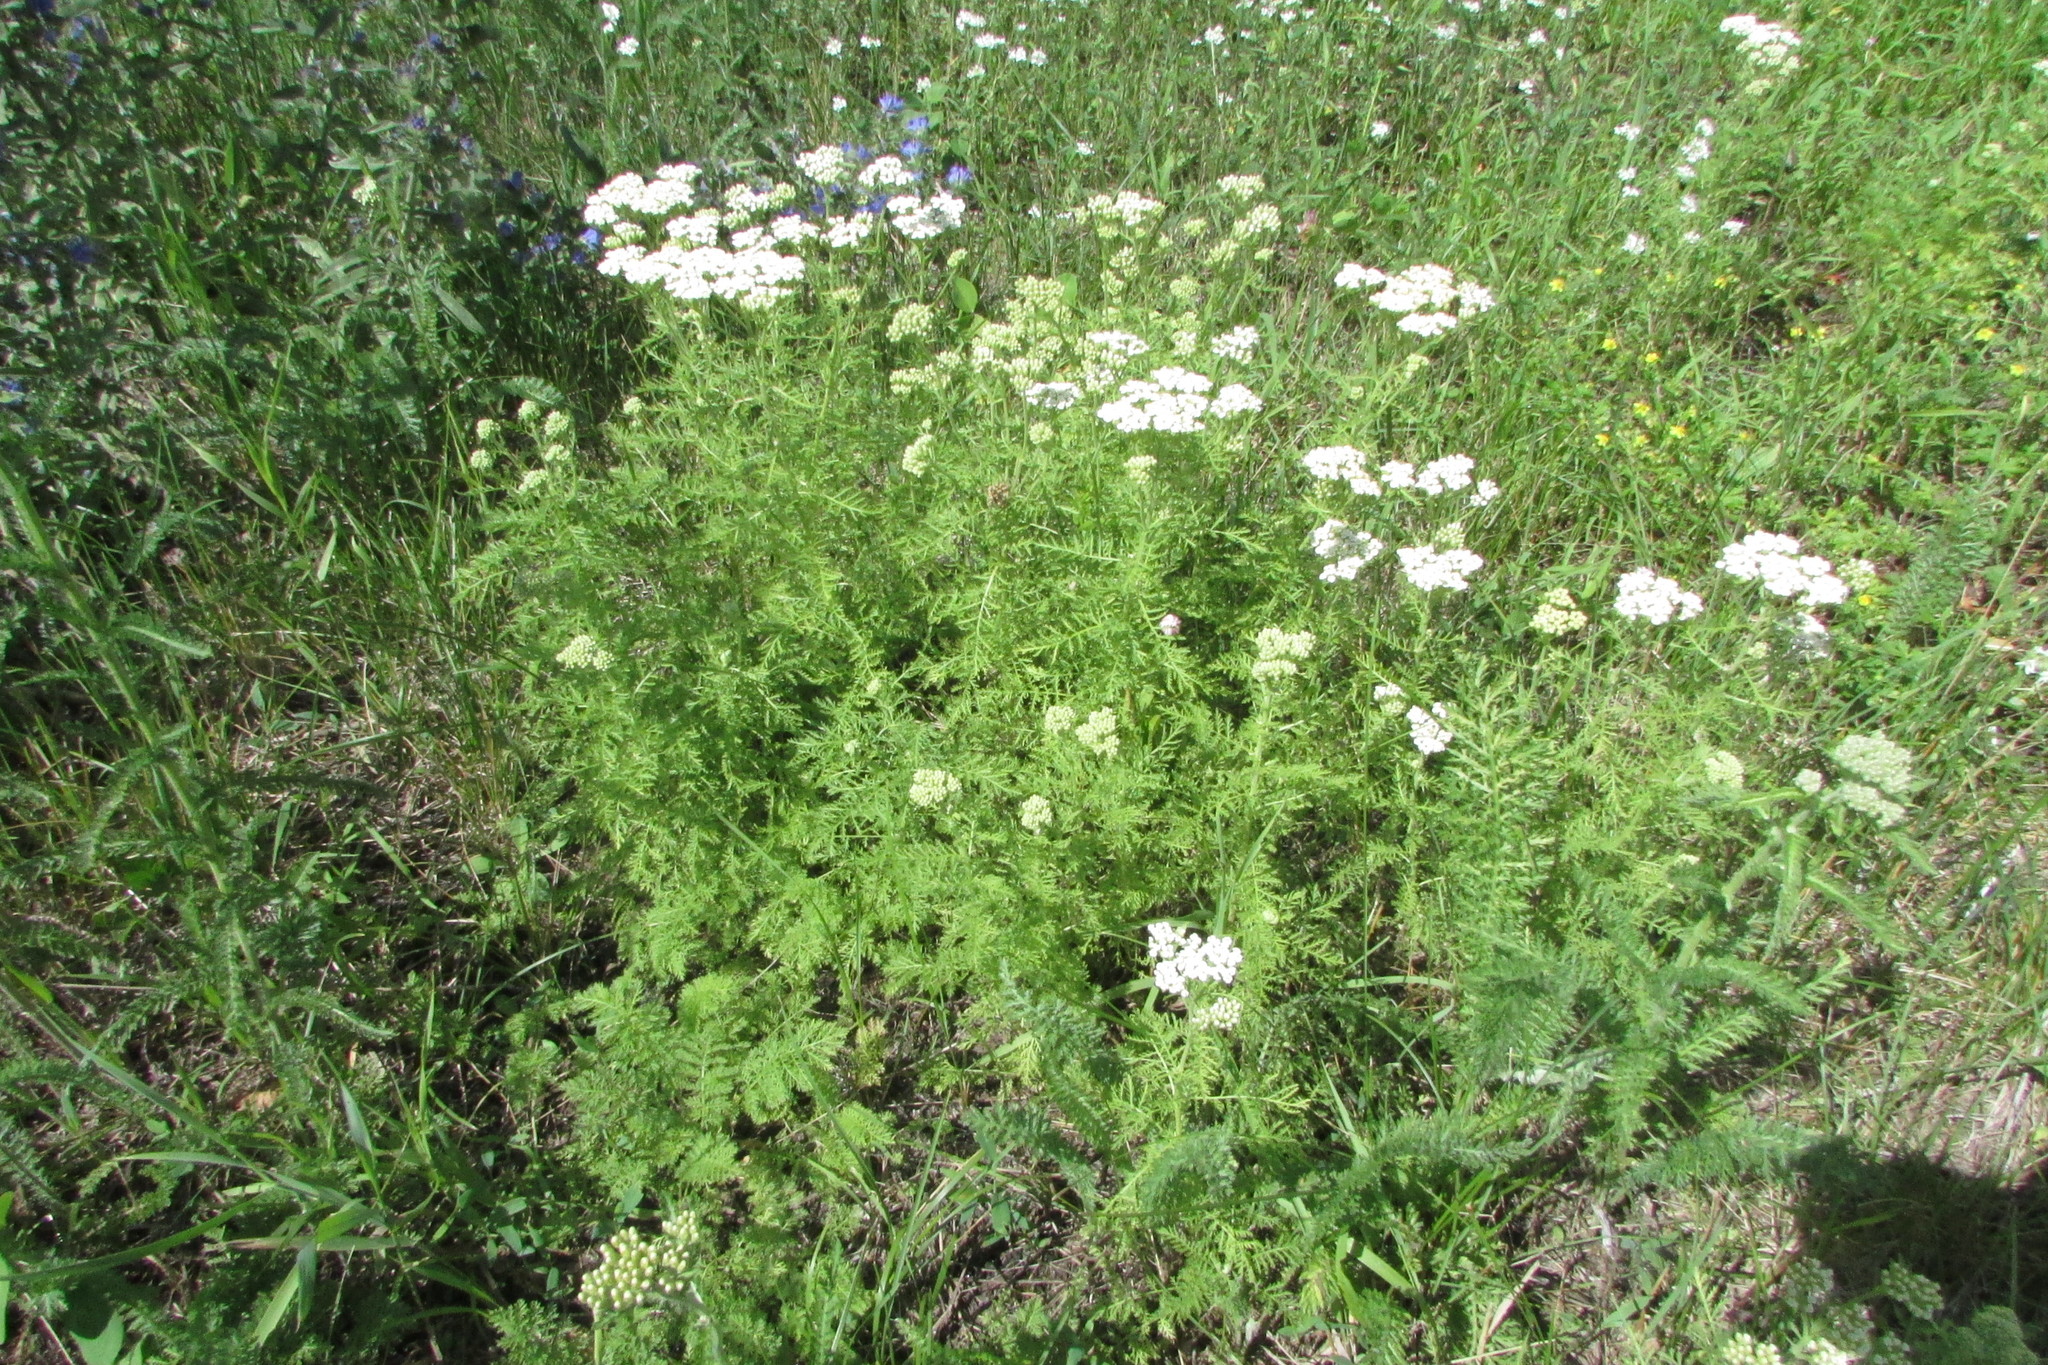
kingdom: Plantae
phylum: Tracheophyta
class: Magnoliopsida
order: Asterales
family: Asteraceae
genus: Achillea
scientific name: Achillea nobilis
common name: Noble yarrow
